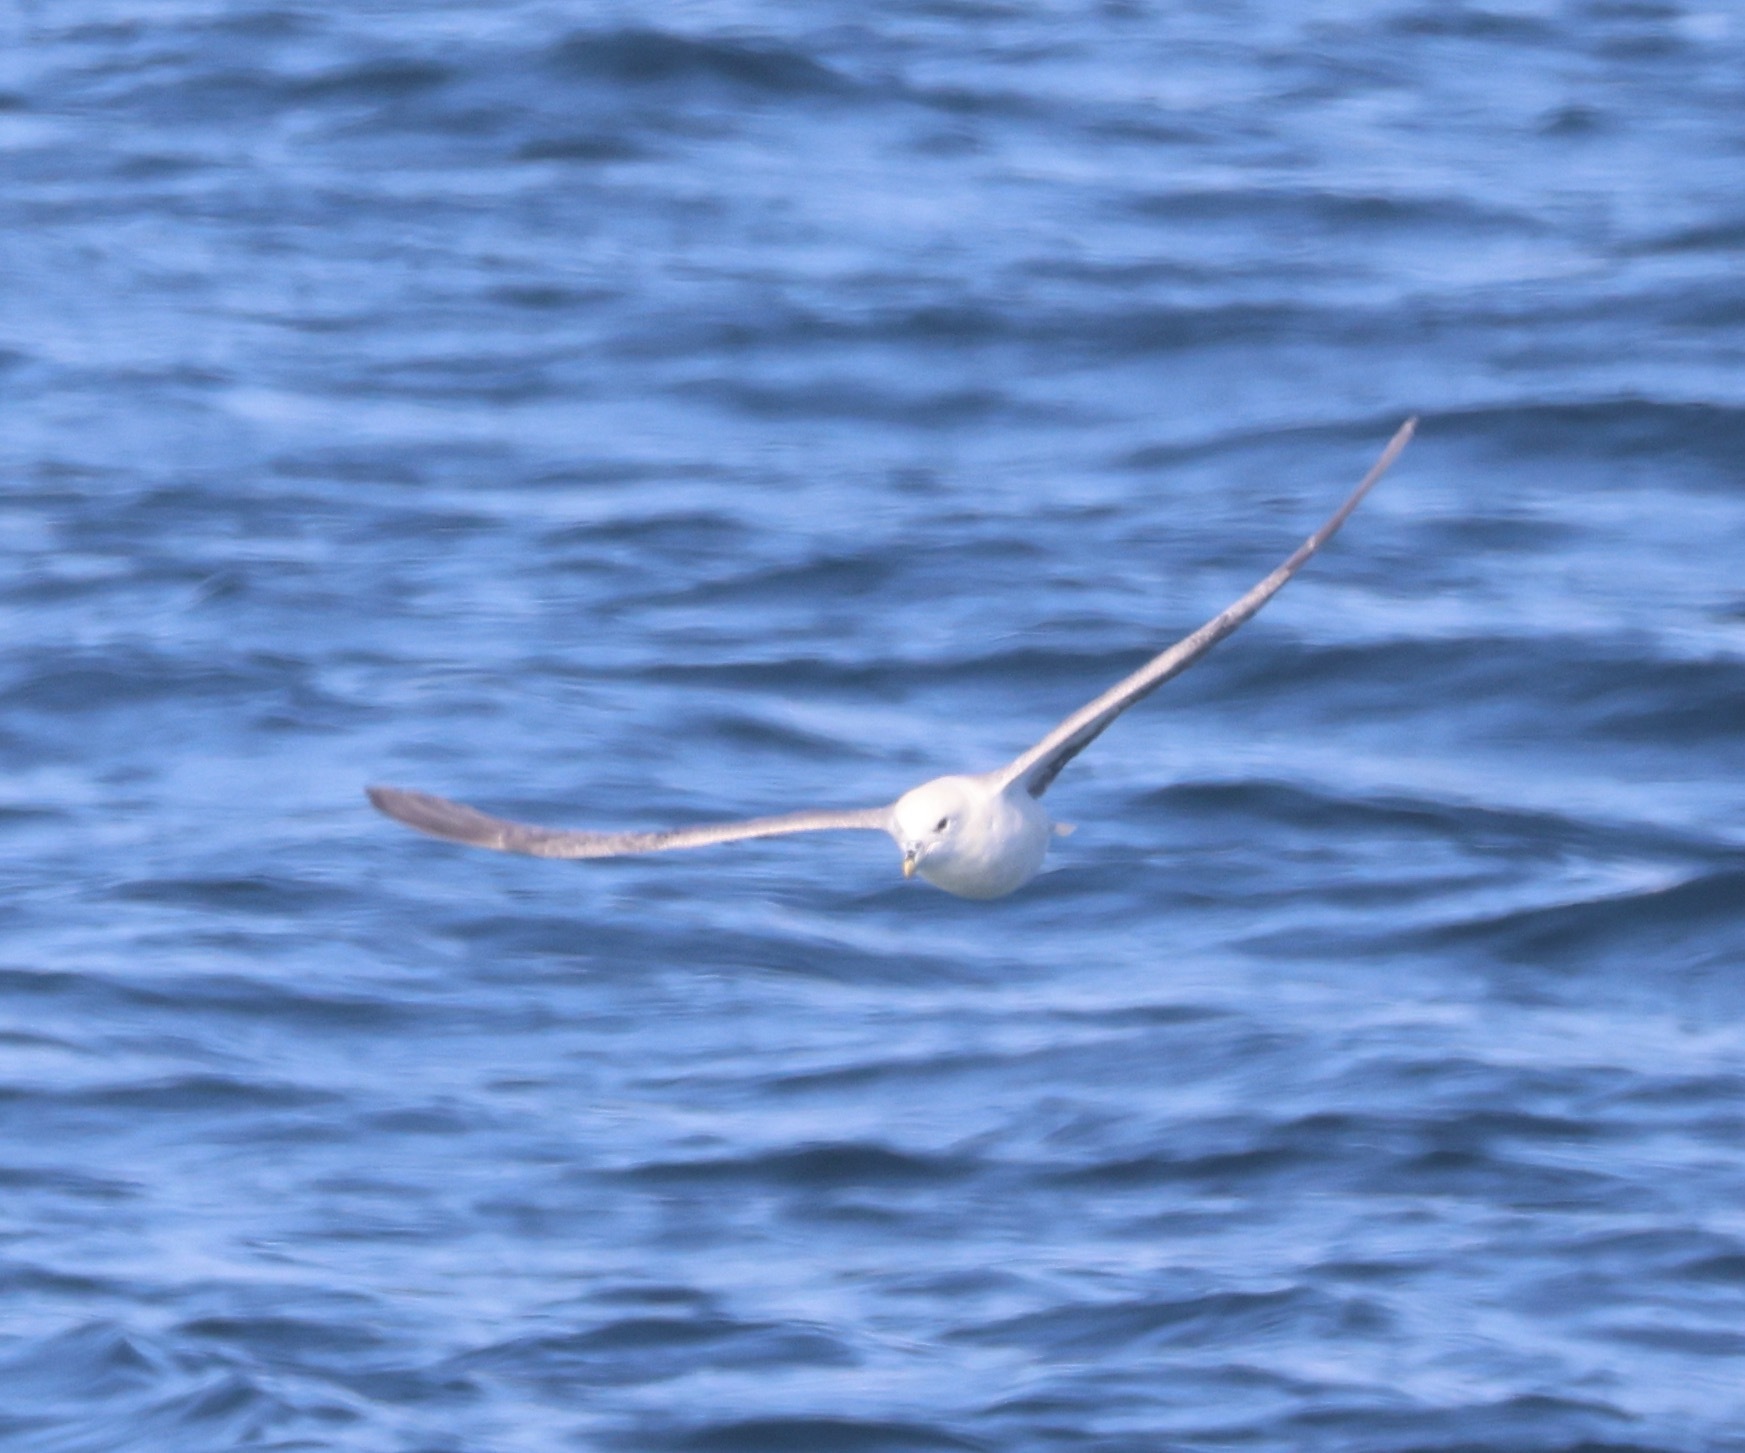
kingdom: Animalia
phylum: Chordata
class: Aves
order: Procellariiformes
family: Procellariidae
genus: Fulmarus
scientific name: Fulmarus glacialis
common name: Northern fulmar
